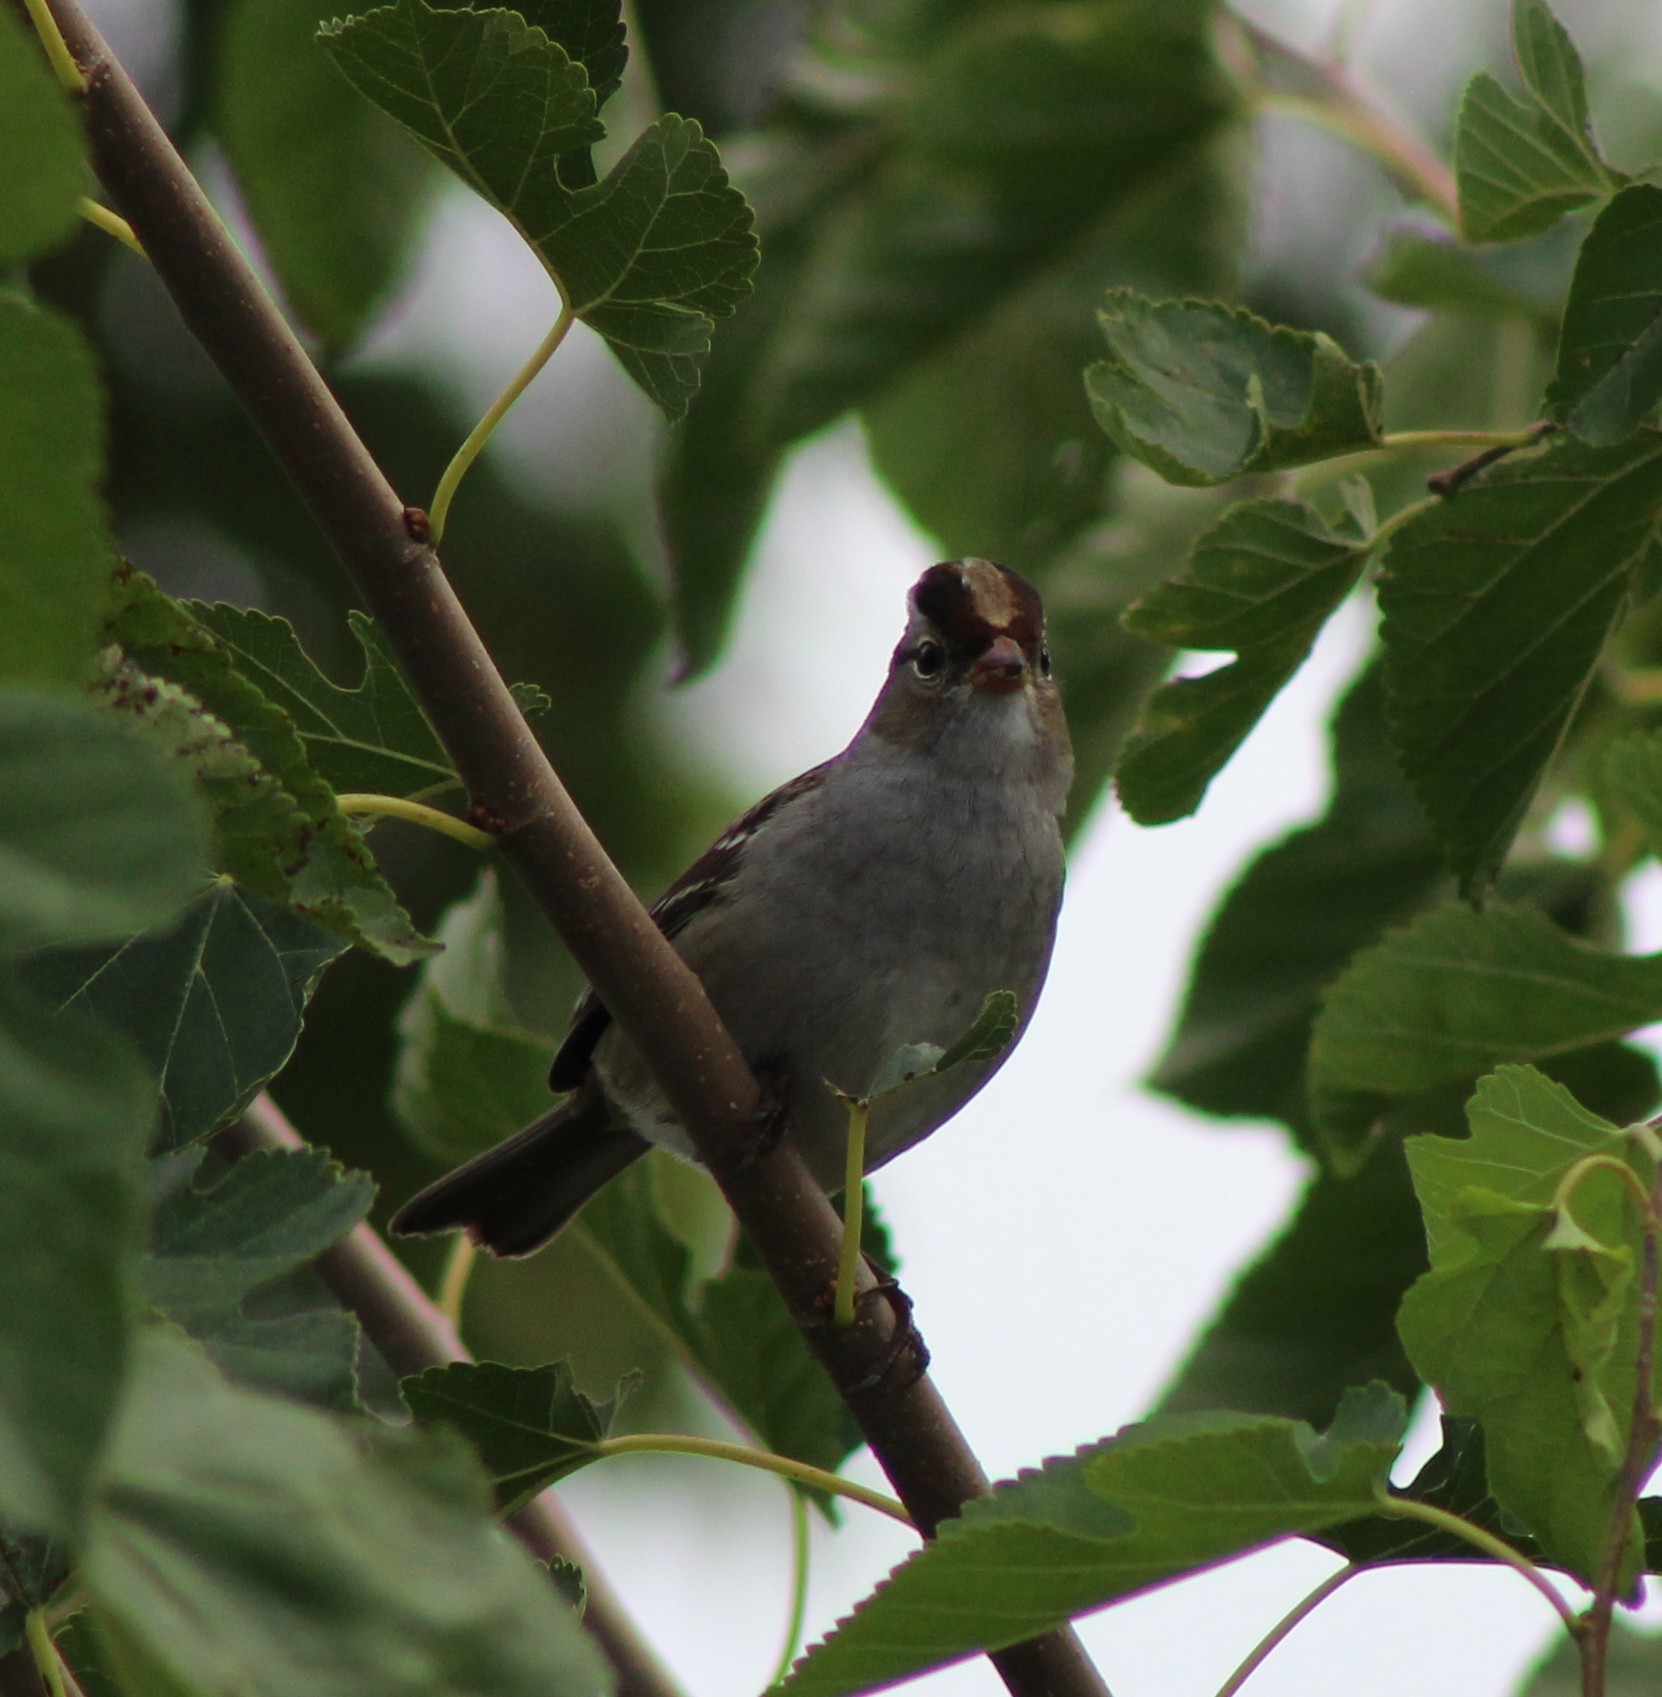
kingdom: Animalia
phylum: Chordata
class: Aves
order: Passeriformes
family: Passerellidae
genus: Zonotrichia
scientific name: Zonotrichia leucophrys
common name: White-crowned sparrow
